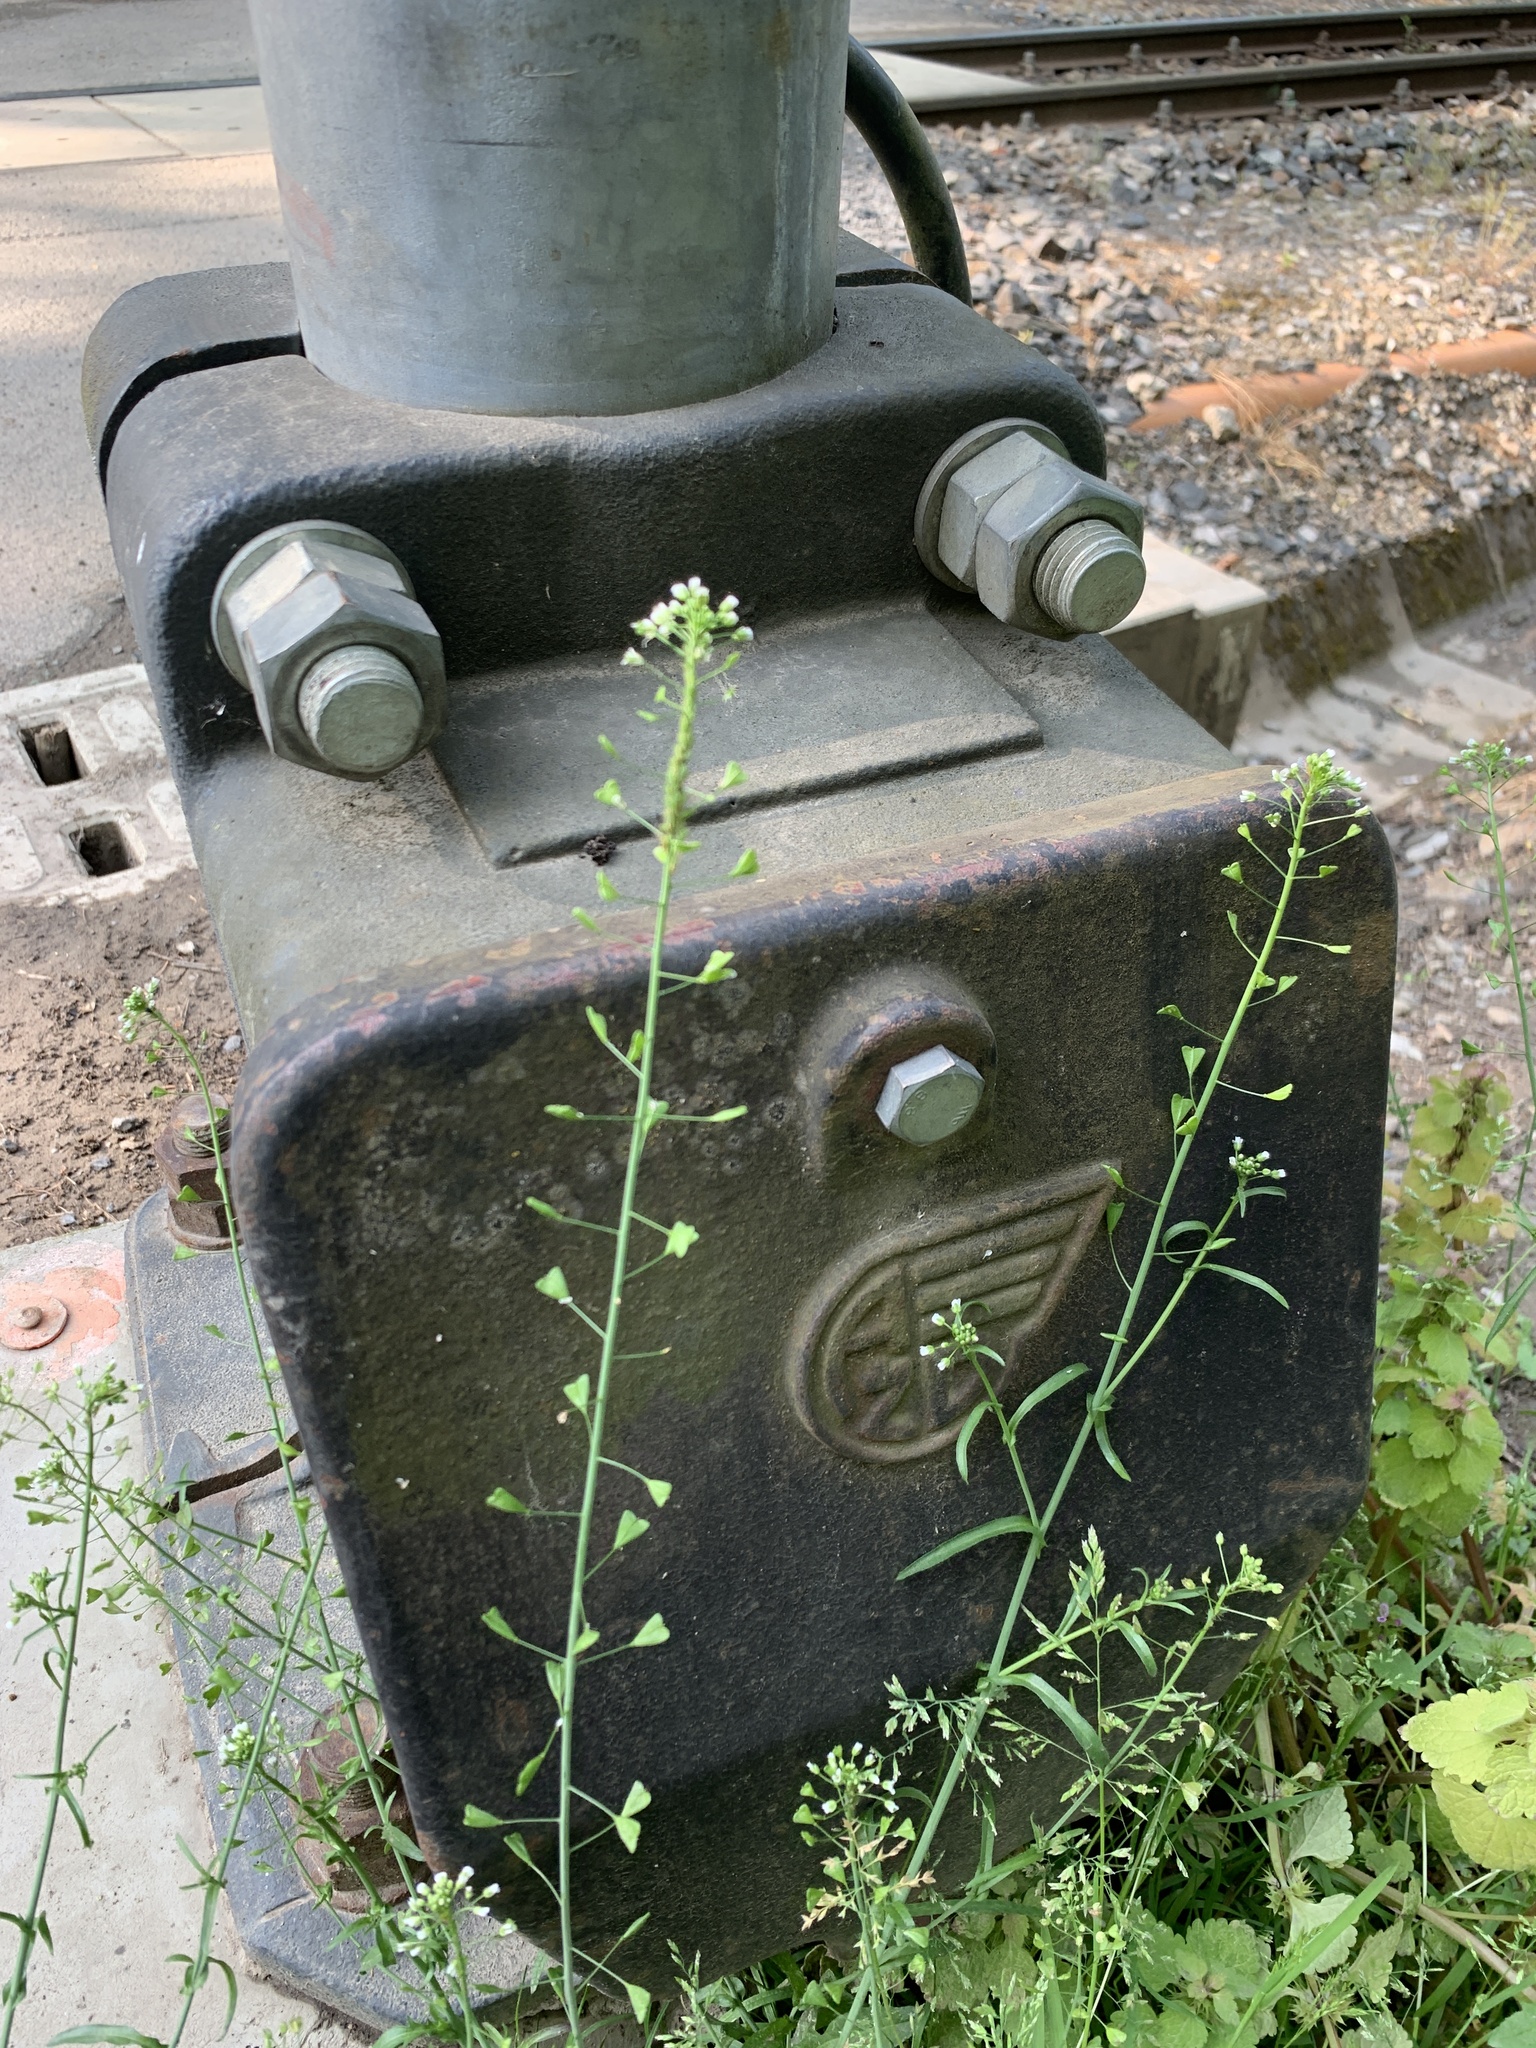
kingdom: Plantae
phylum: Tracheophyta
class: Magnoliopsida
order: Brassicales
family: Brassicaceae
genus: Capsella
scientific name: Capsella bursa-pastoris
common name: Shepherd's purse
